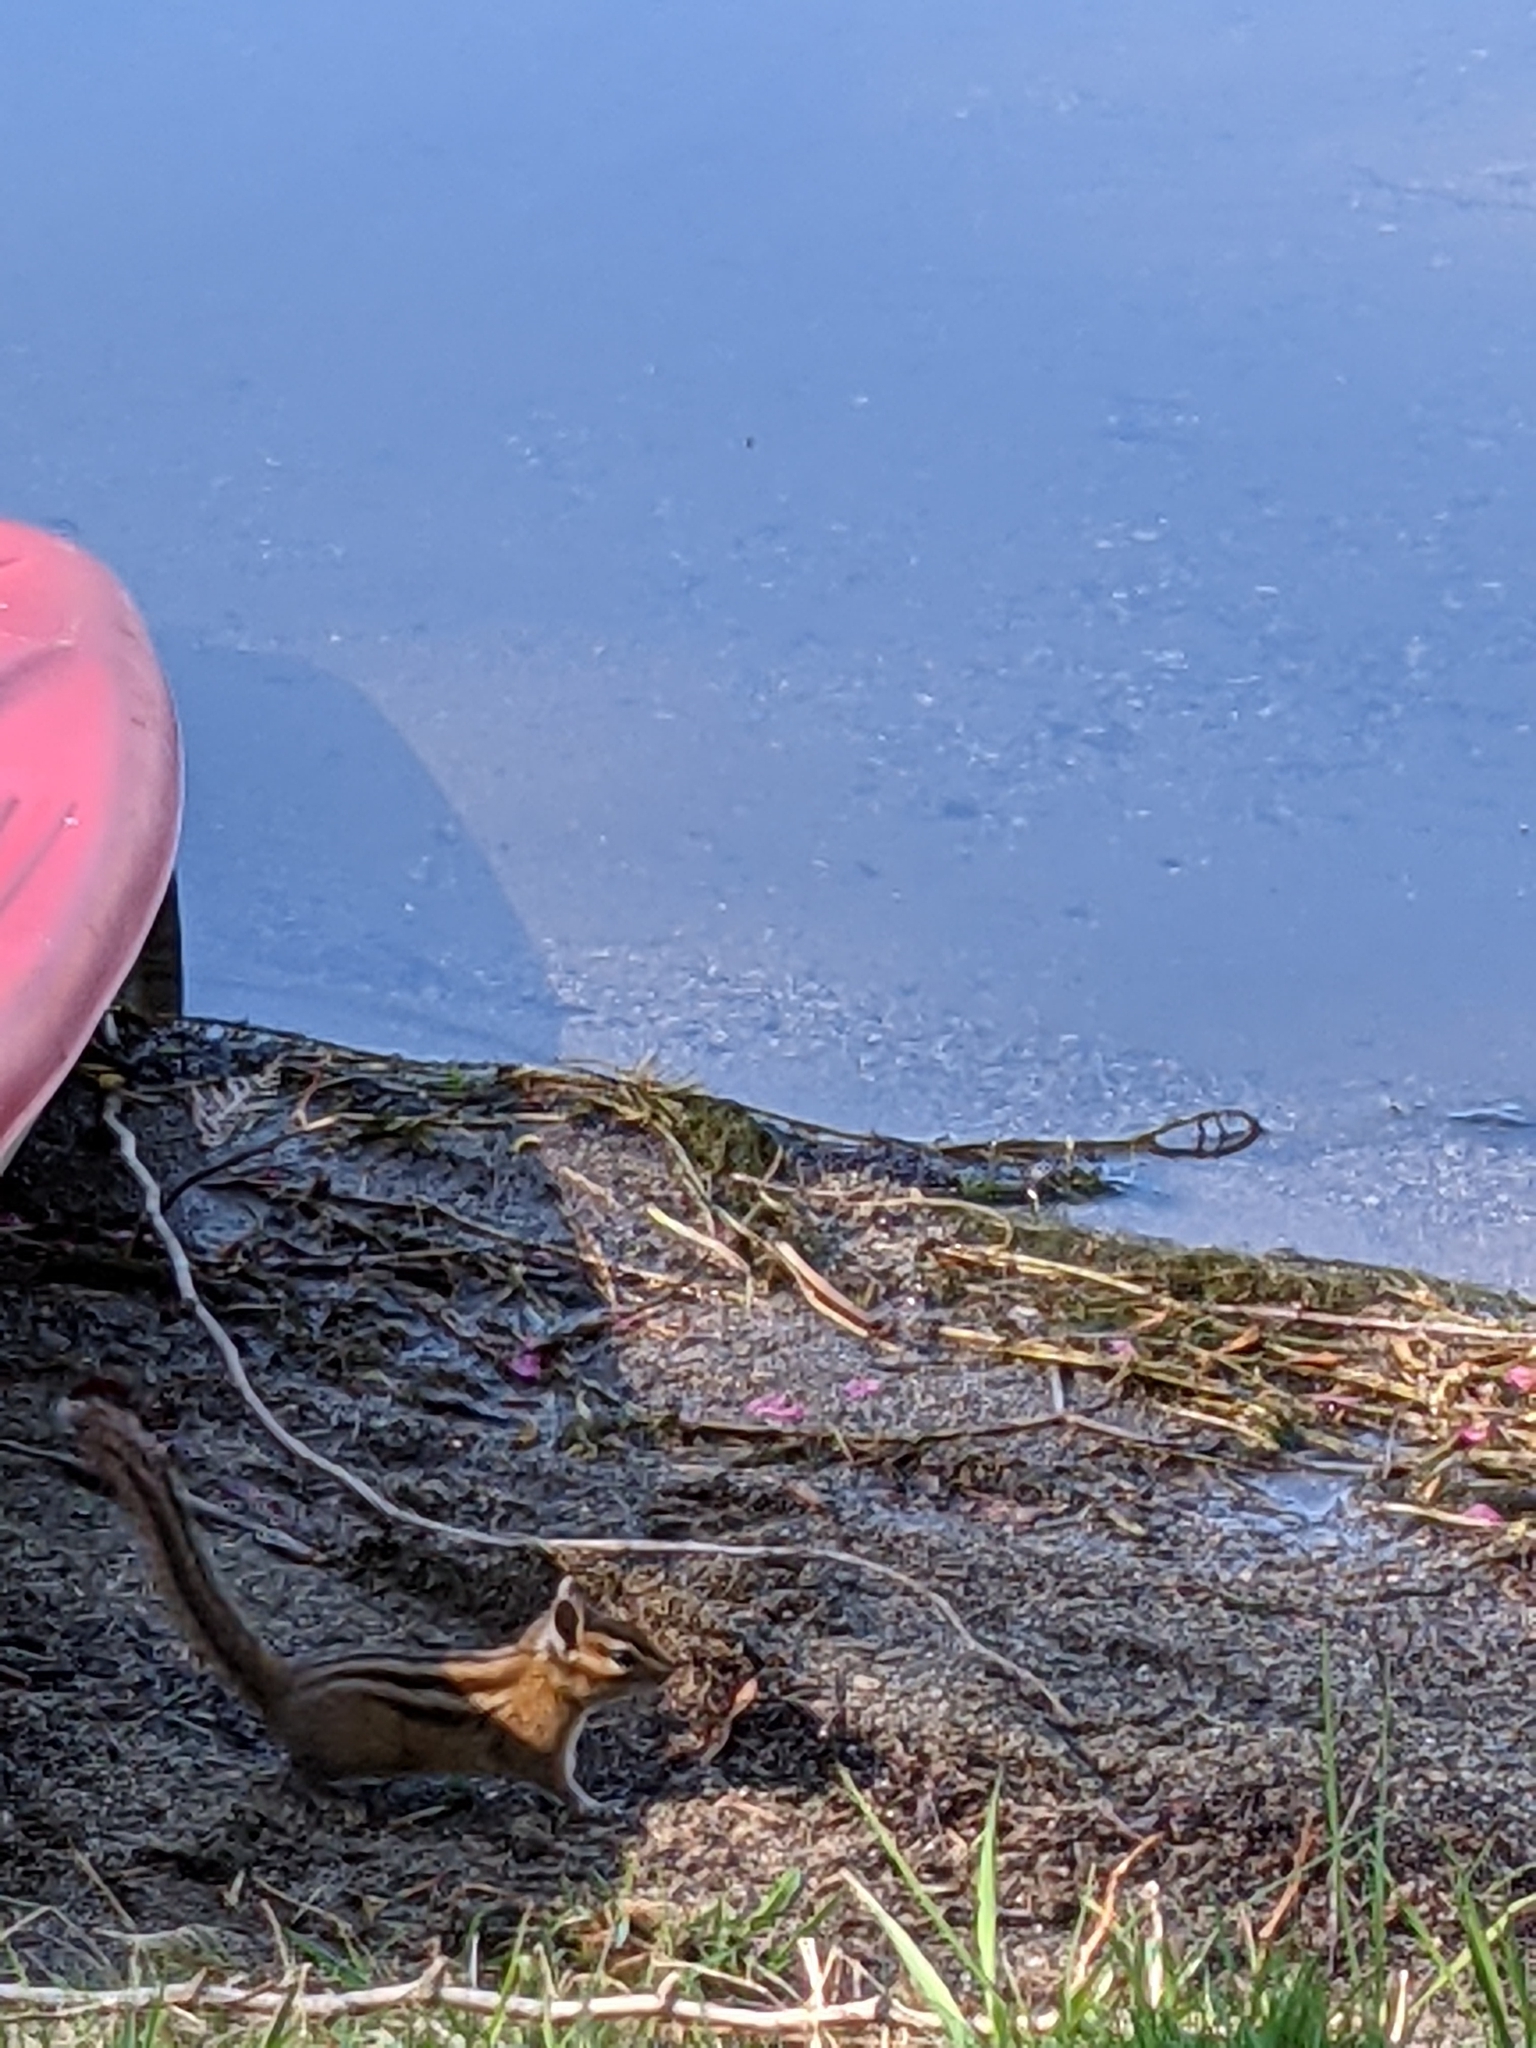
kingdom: Animalia
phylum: Chordata
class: Mammalia
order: Rodentia
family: Sciuridae
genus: Tamias
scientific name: Tamias townsendii
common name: Townsend's chipmunk
